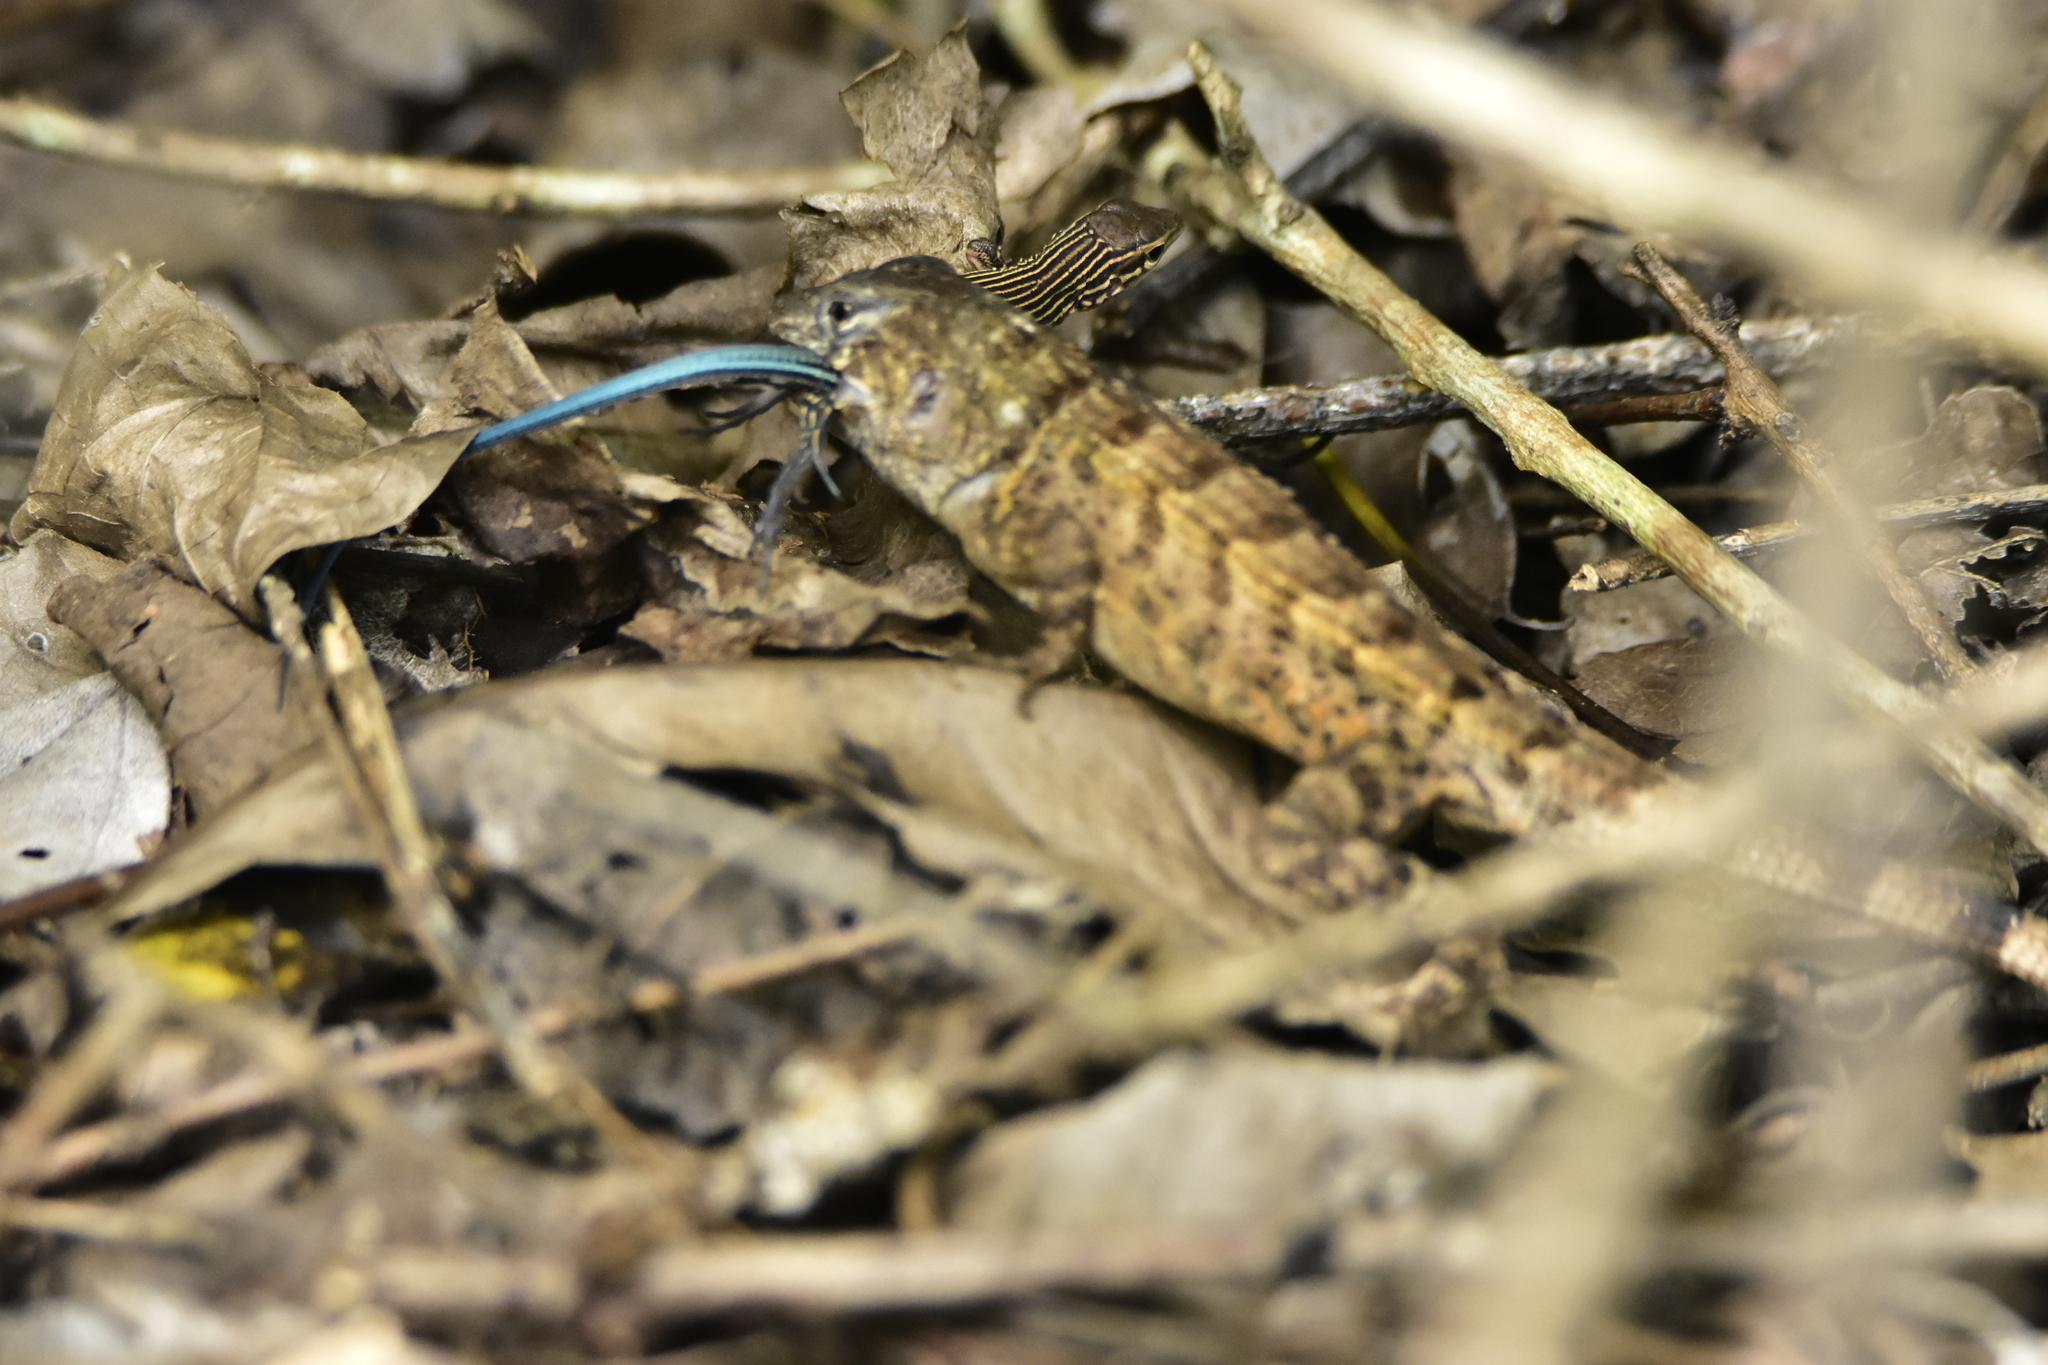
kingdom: Animalia
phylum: Chordata
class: Squamata
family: Phrynosomatidae
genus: Sceloporus
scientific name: Sceloporus utiformis
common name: Antesator
